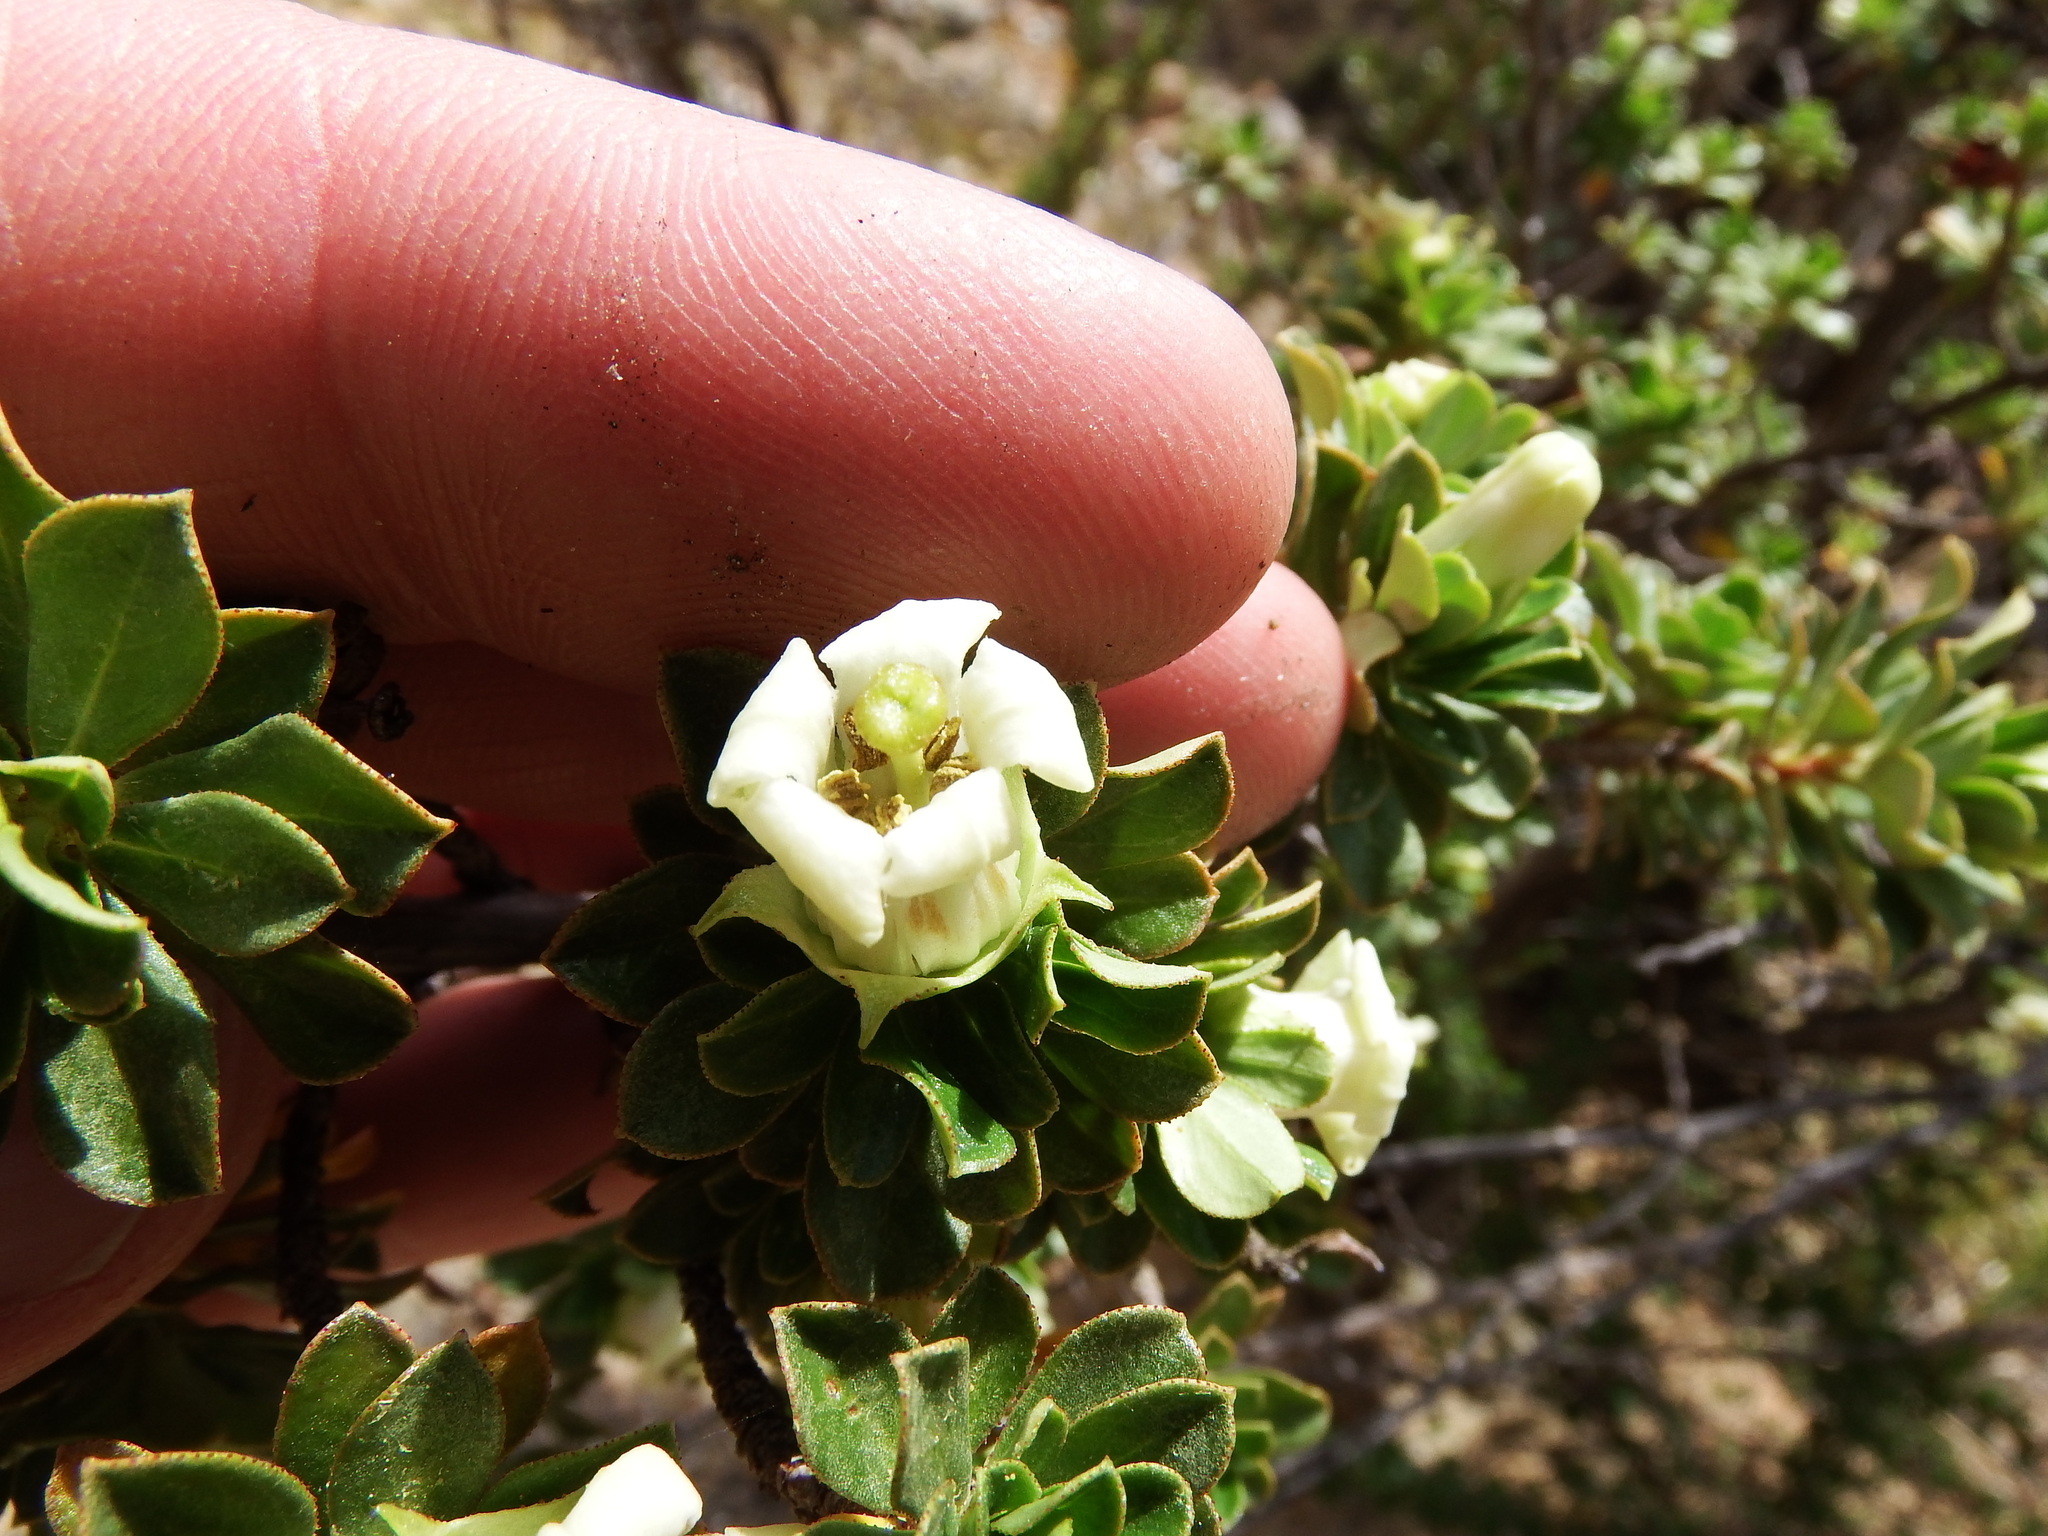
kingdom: Plantae
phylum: Tracheophyta
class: Magnoliopsida
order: Escalloniales
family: Escalloniaceae
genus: Escallonia
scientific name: Escallonia myrtilloides
